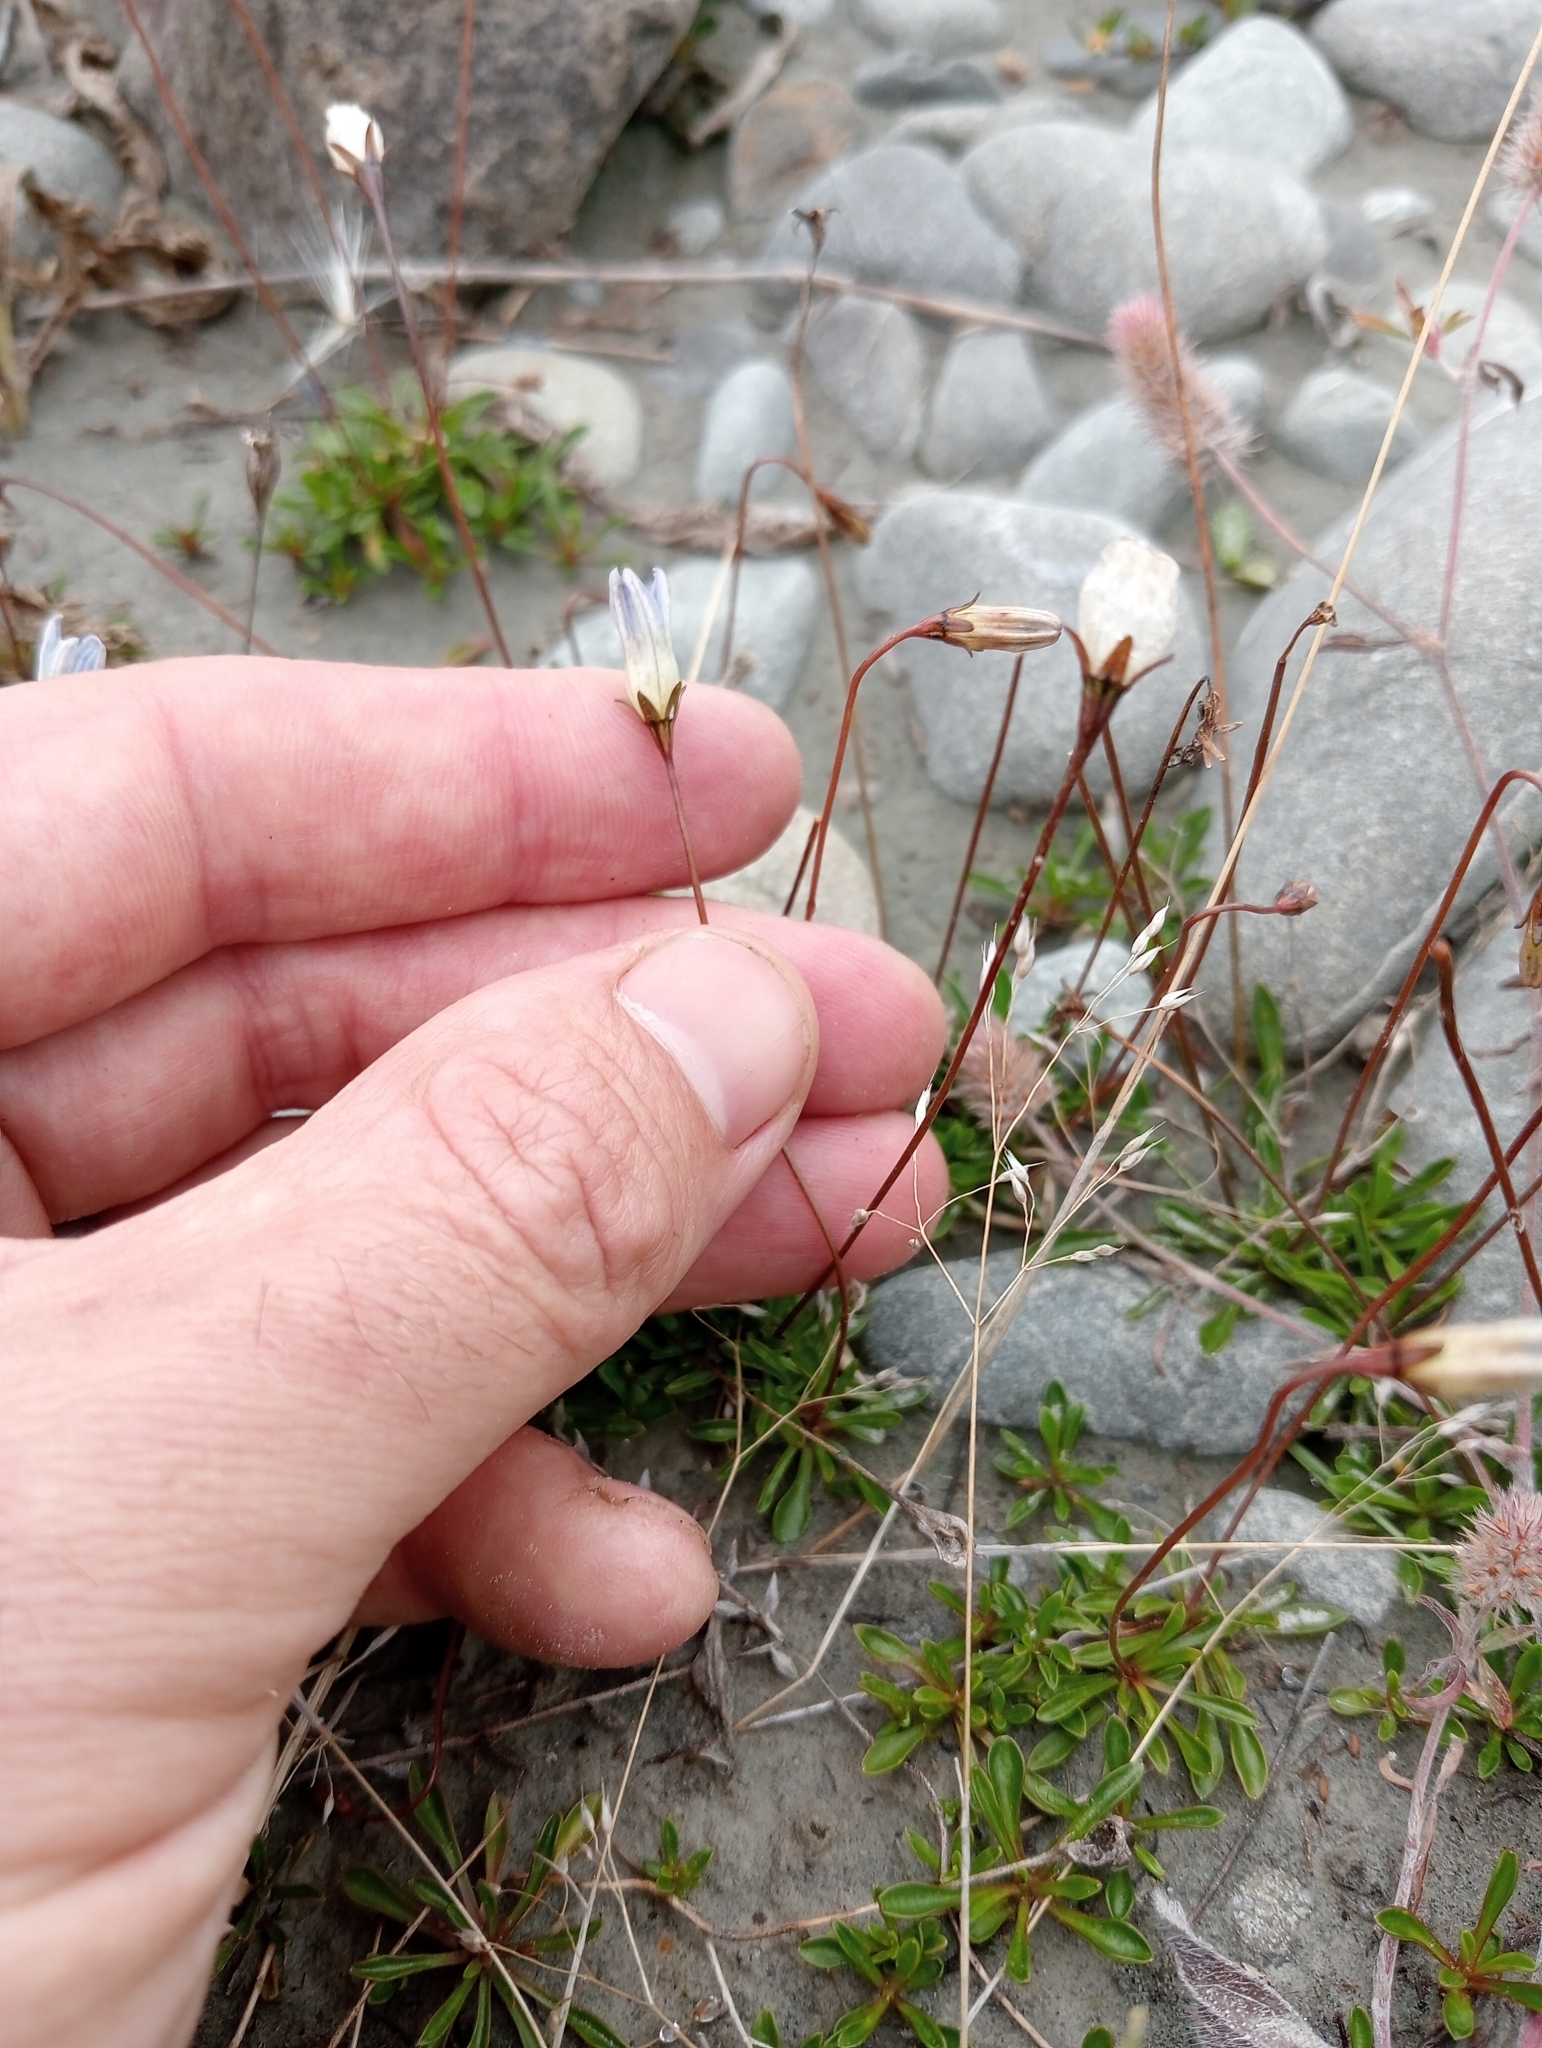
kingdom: Plantae
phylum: Tracheophyta
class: Magnoliopsida
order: Asterales
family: Campanulaceae
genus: Wahlenbergia
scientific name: Wahlenbergia albomarginata
